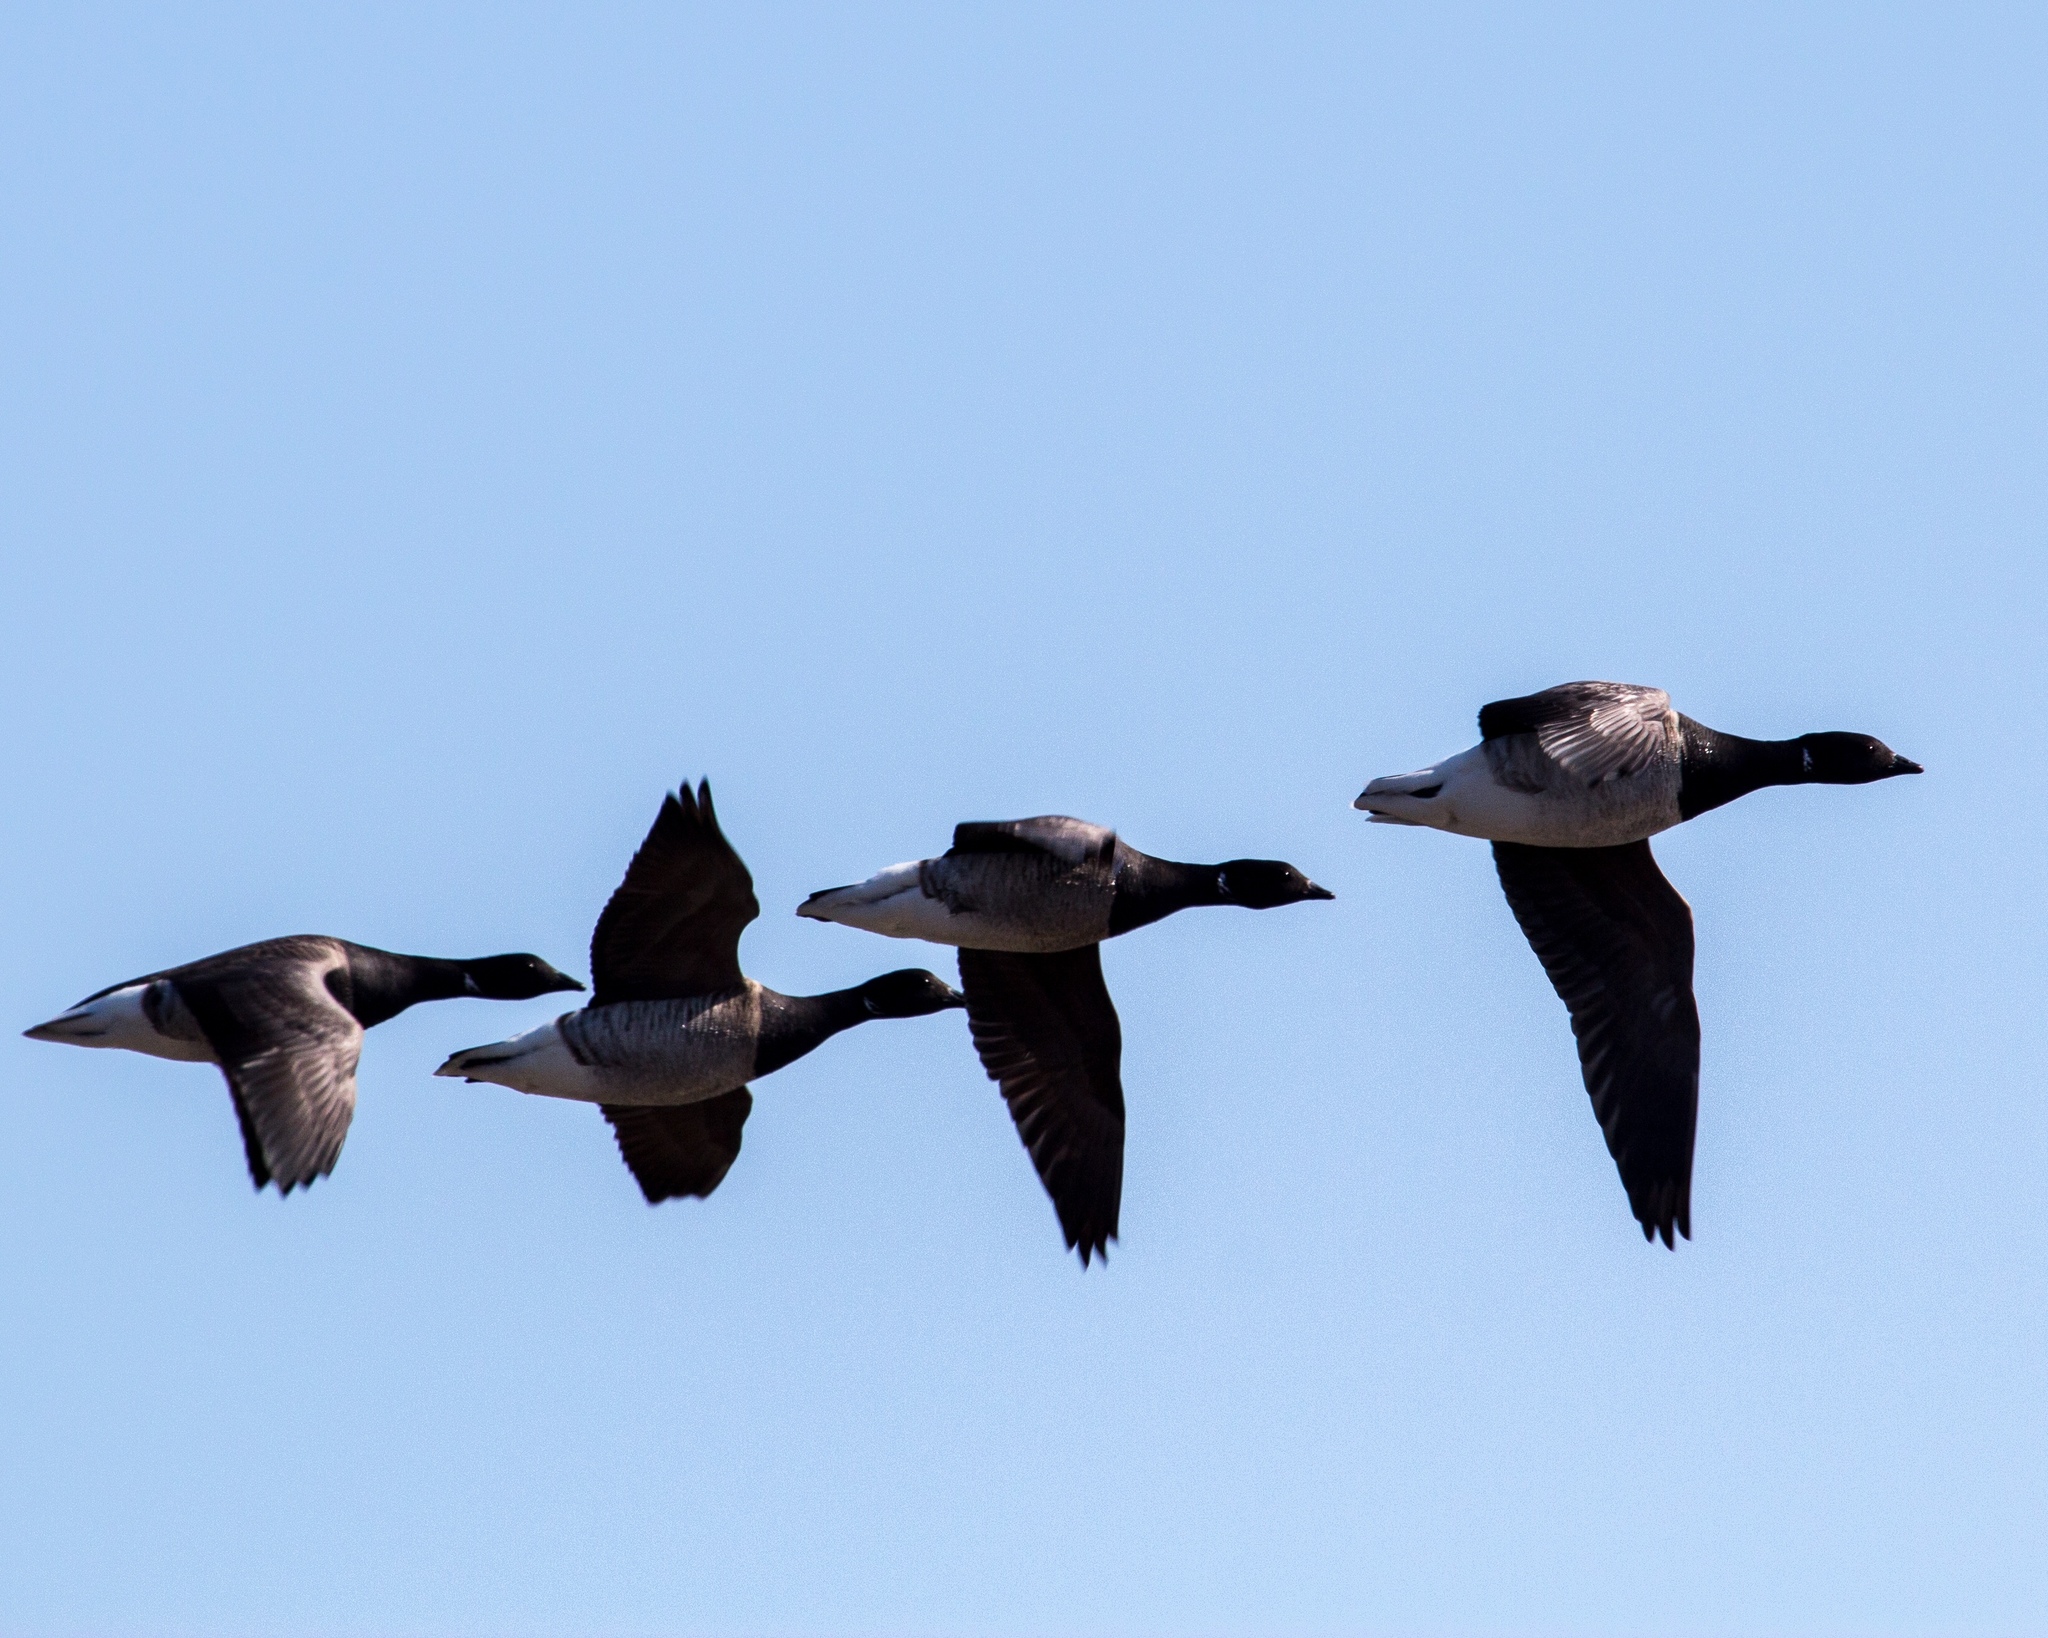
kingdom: Animalia
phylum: Chordata
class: Aves
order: Anseriformes
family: Anatidae
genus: Branta
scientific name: Branta bernicla
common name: Brant goose
